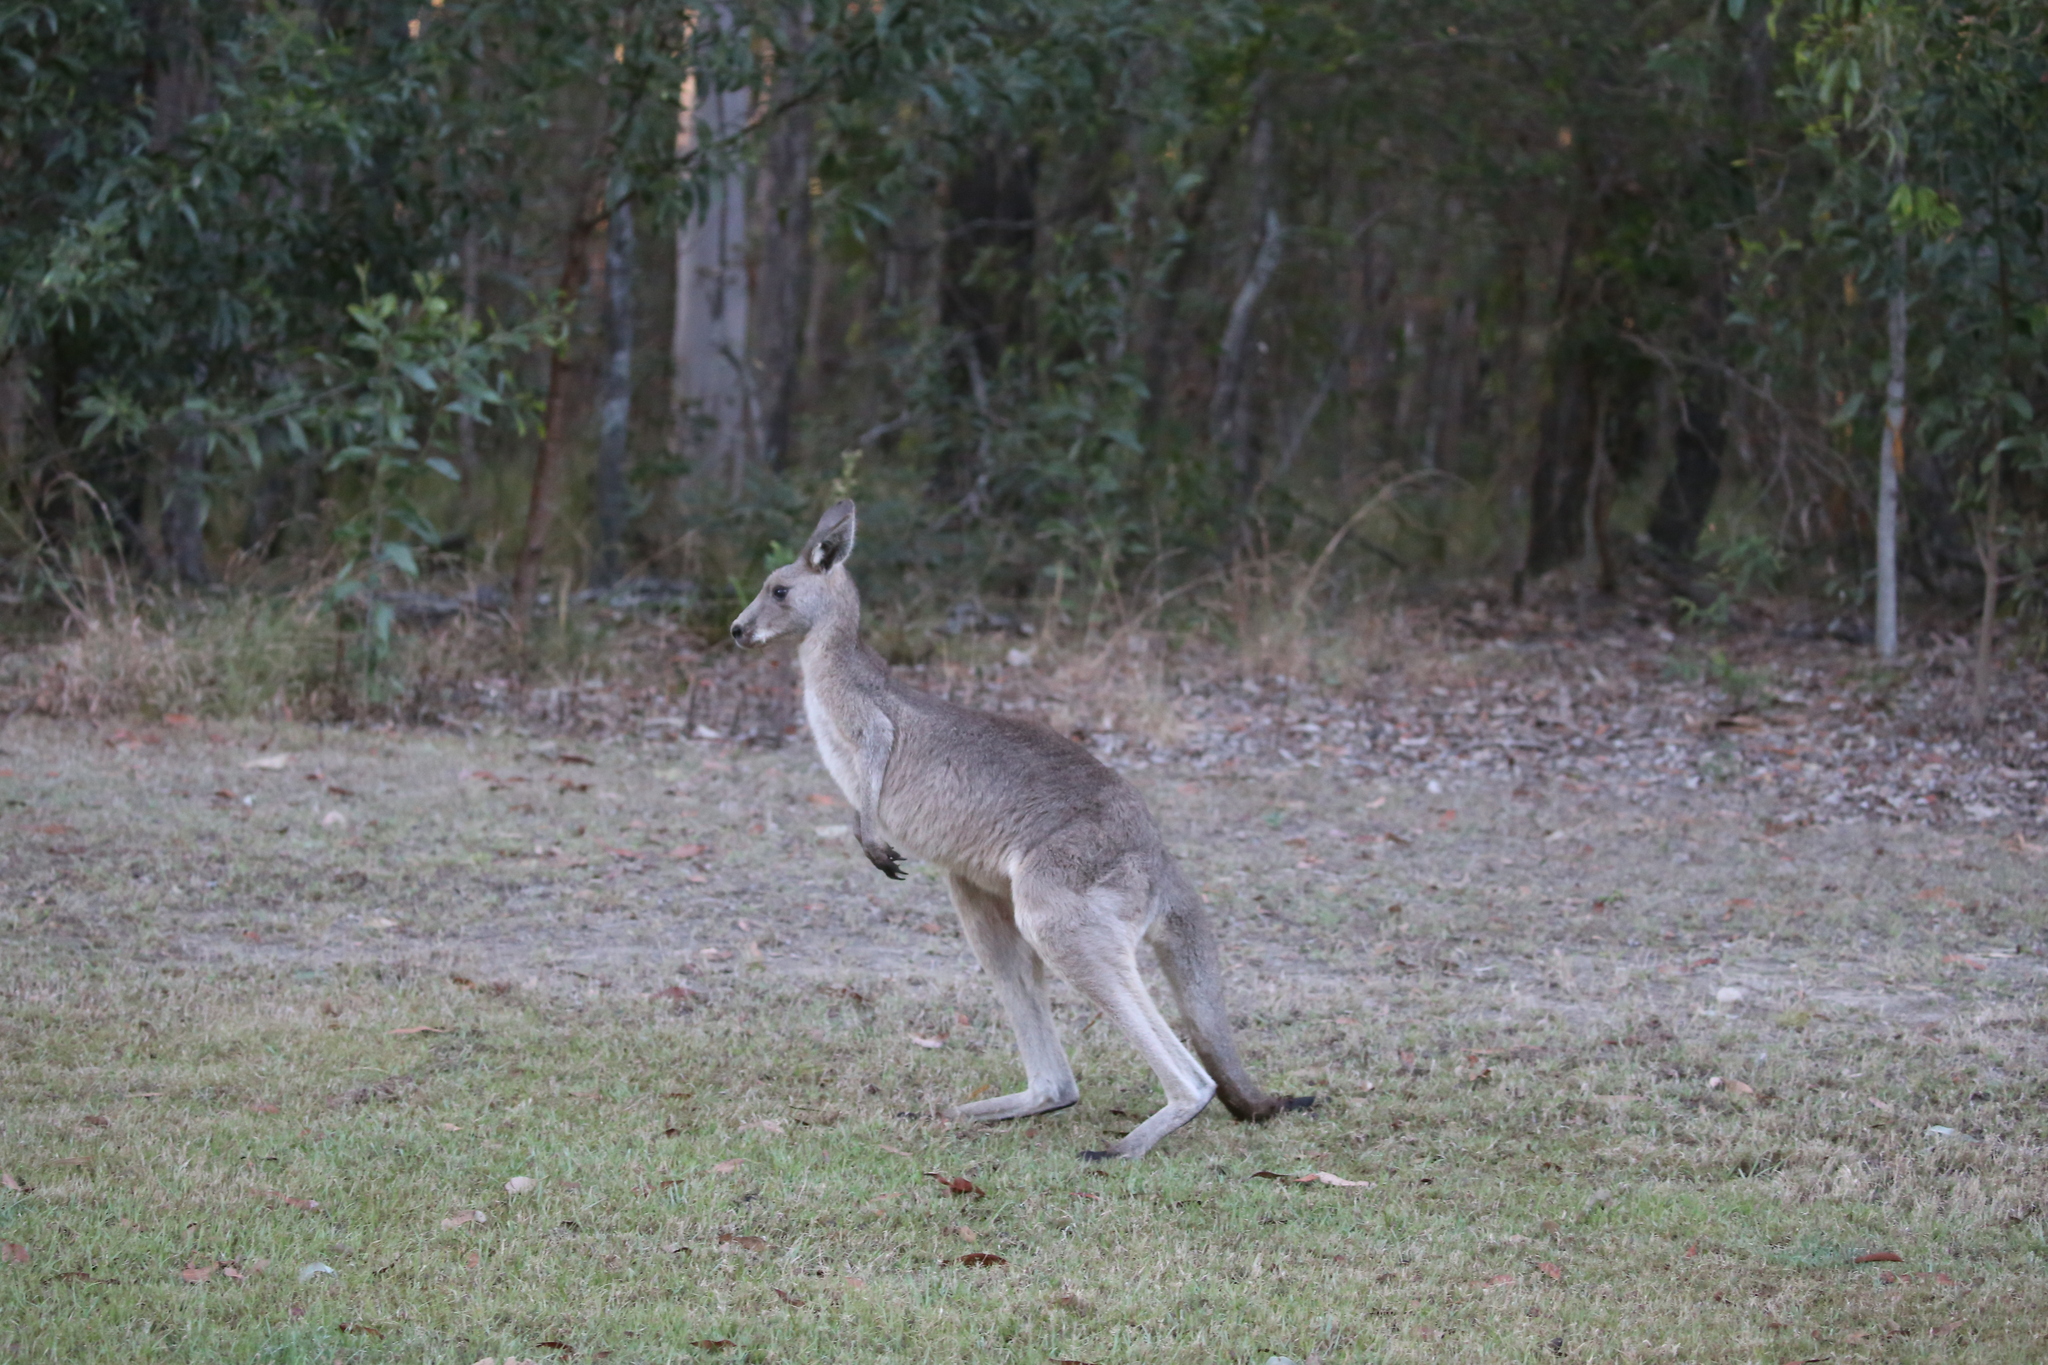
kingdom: Animalia
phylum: Chordata
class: Mammalia
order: Diprotodontia
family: Macropodidae
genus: Macropus
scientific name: Macropus giganteus
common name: Eastern grey kangaroo
